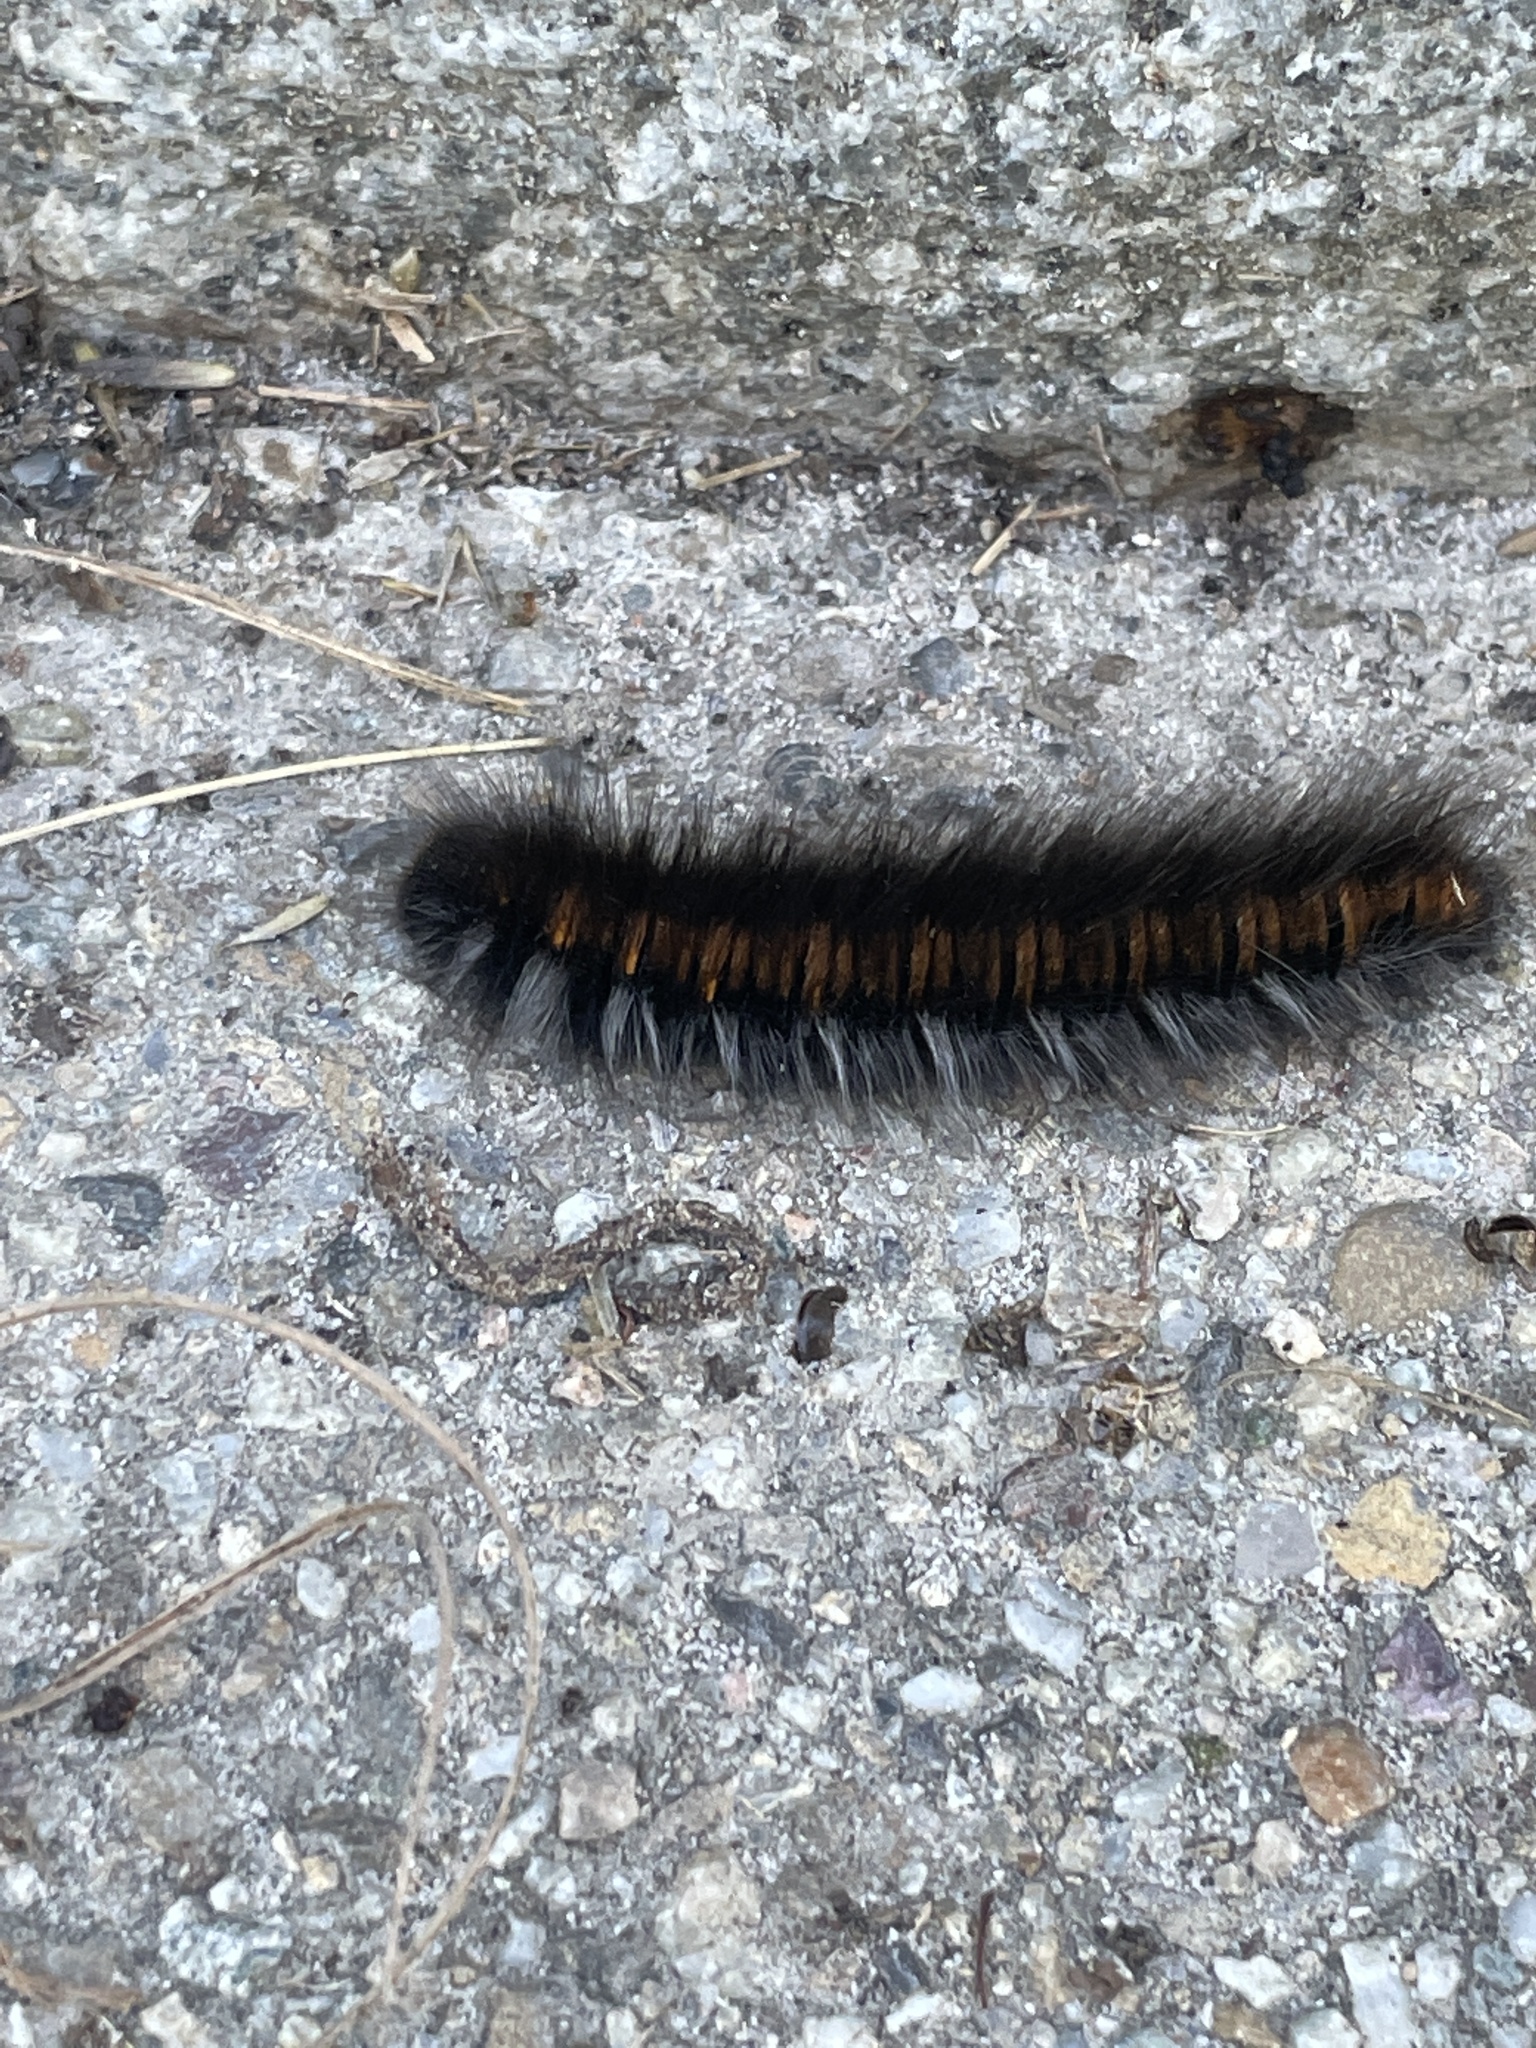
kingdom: Animalia
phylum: Arthropoda
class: Insecta
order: Lepidoptera
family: Lasiocampidae
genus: Macrothylacia
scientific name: Macrothylacia rubi
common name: Fox moth
